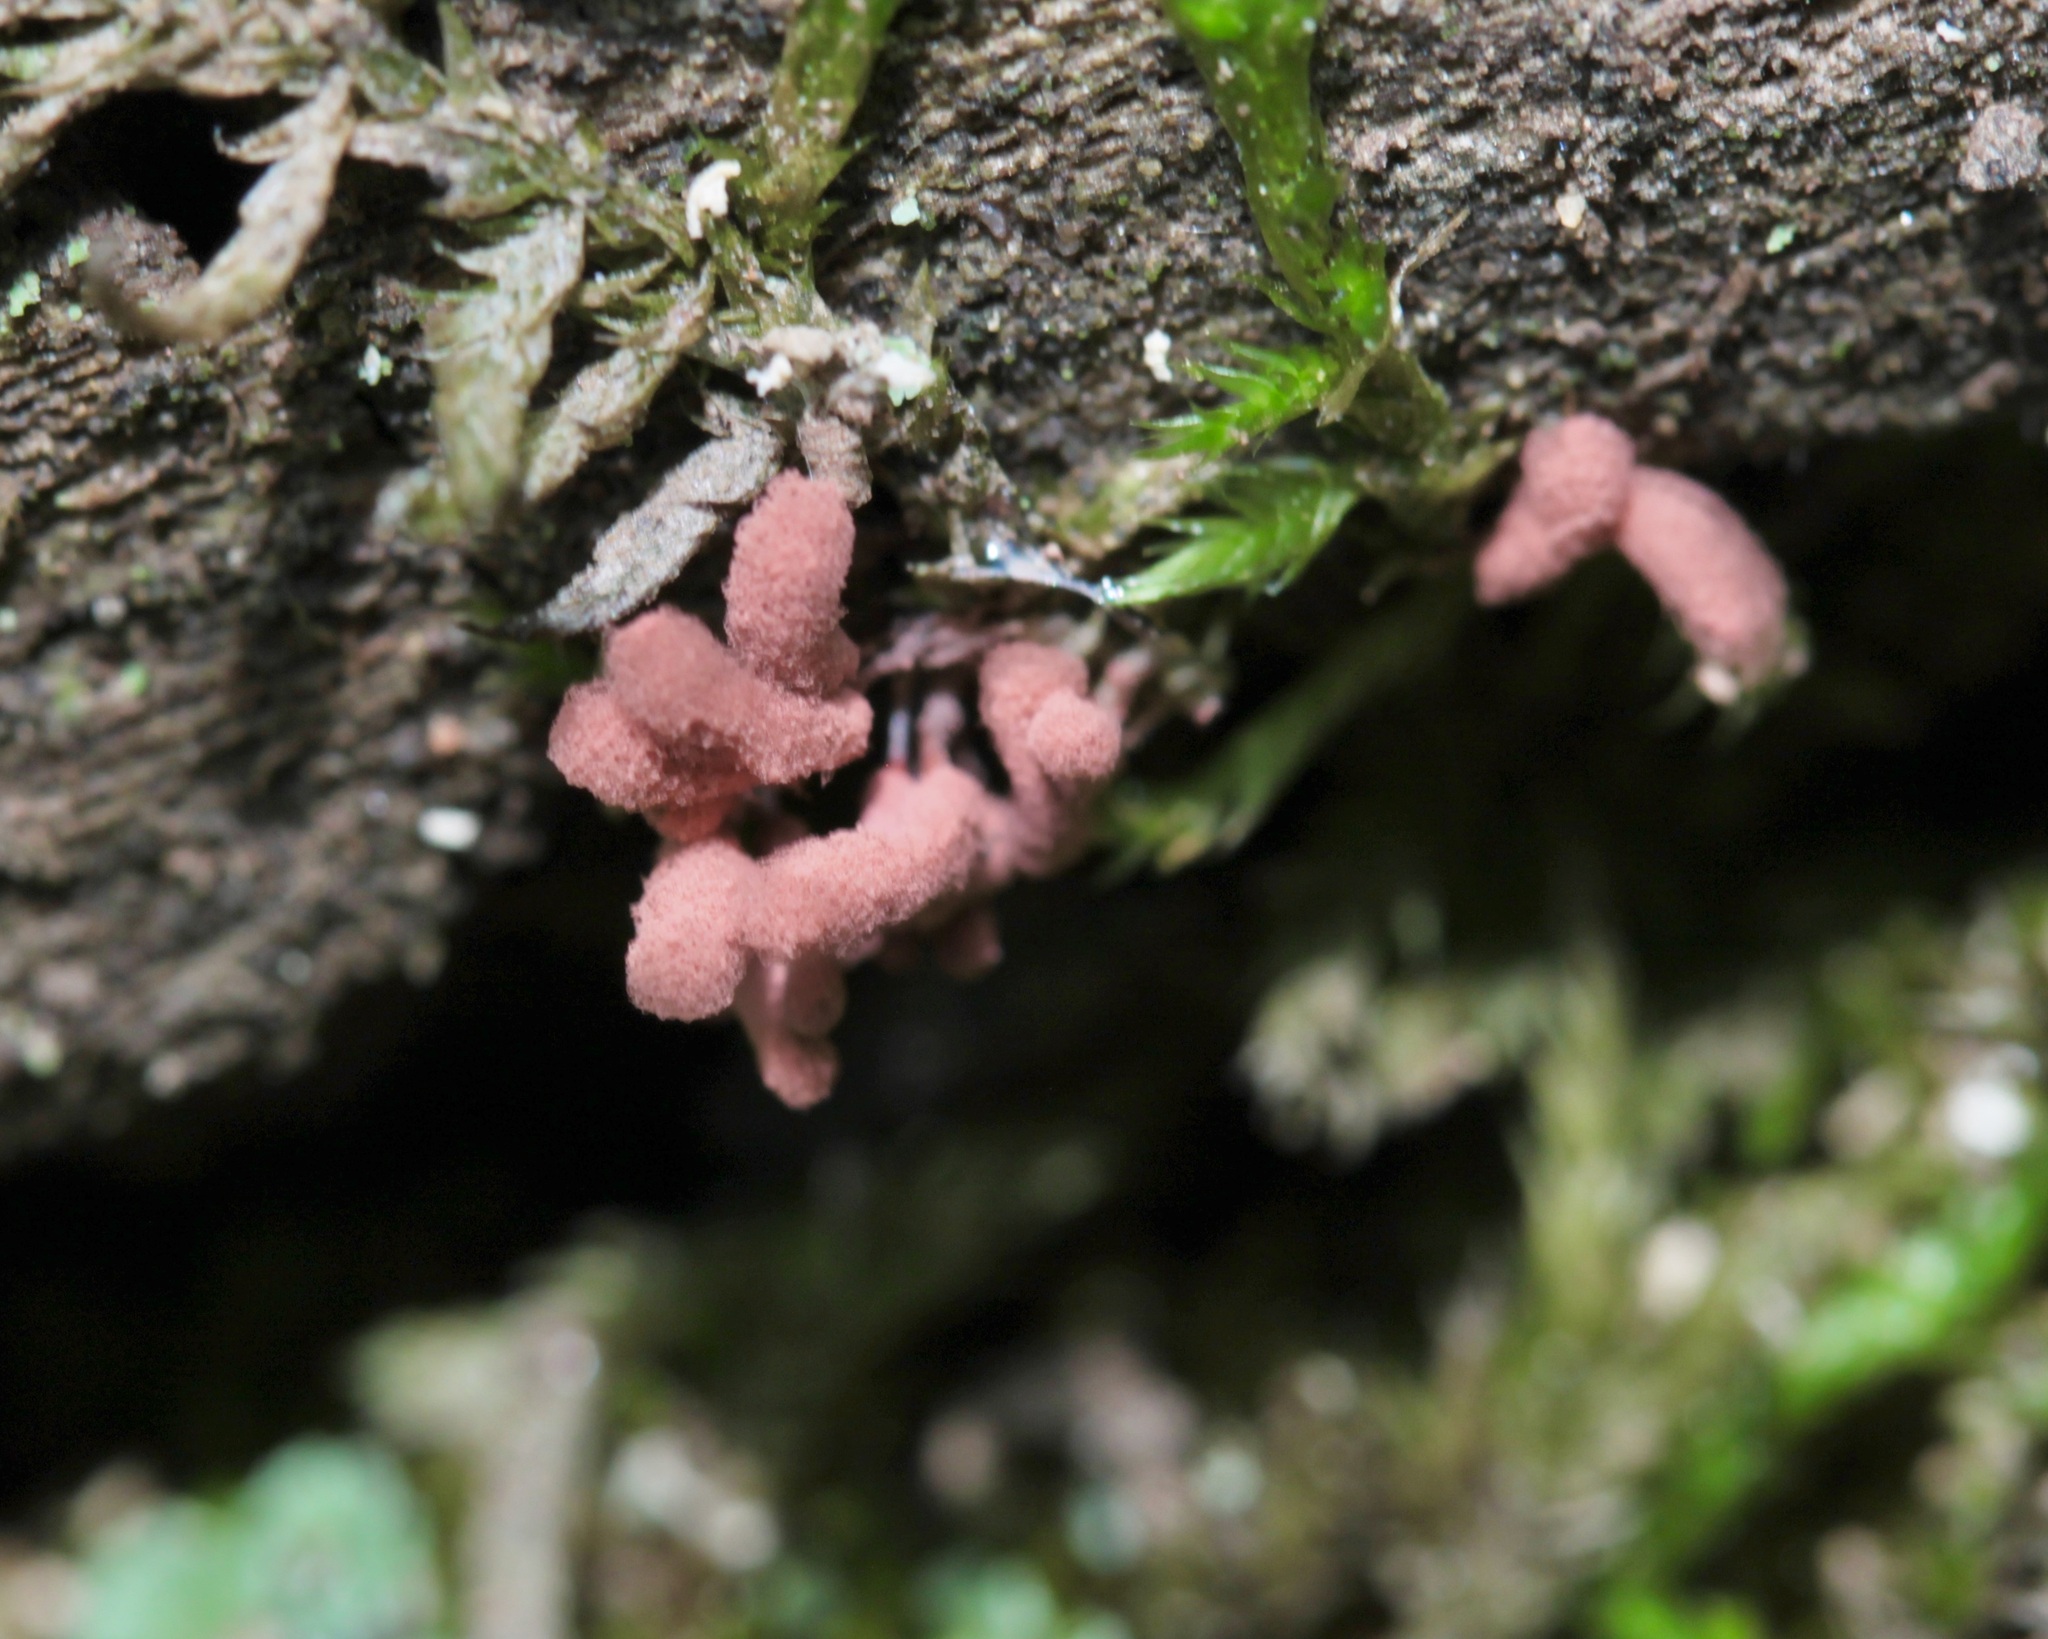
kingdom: Protozoa
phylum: Mycetozoa
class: Myxomycetes
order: Trichiales
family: Arcyriaceae
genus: Arcyria
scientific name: Arcyria denudata
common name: Carnival candy slime mold
